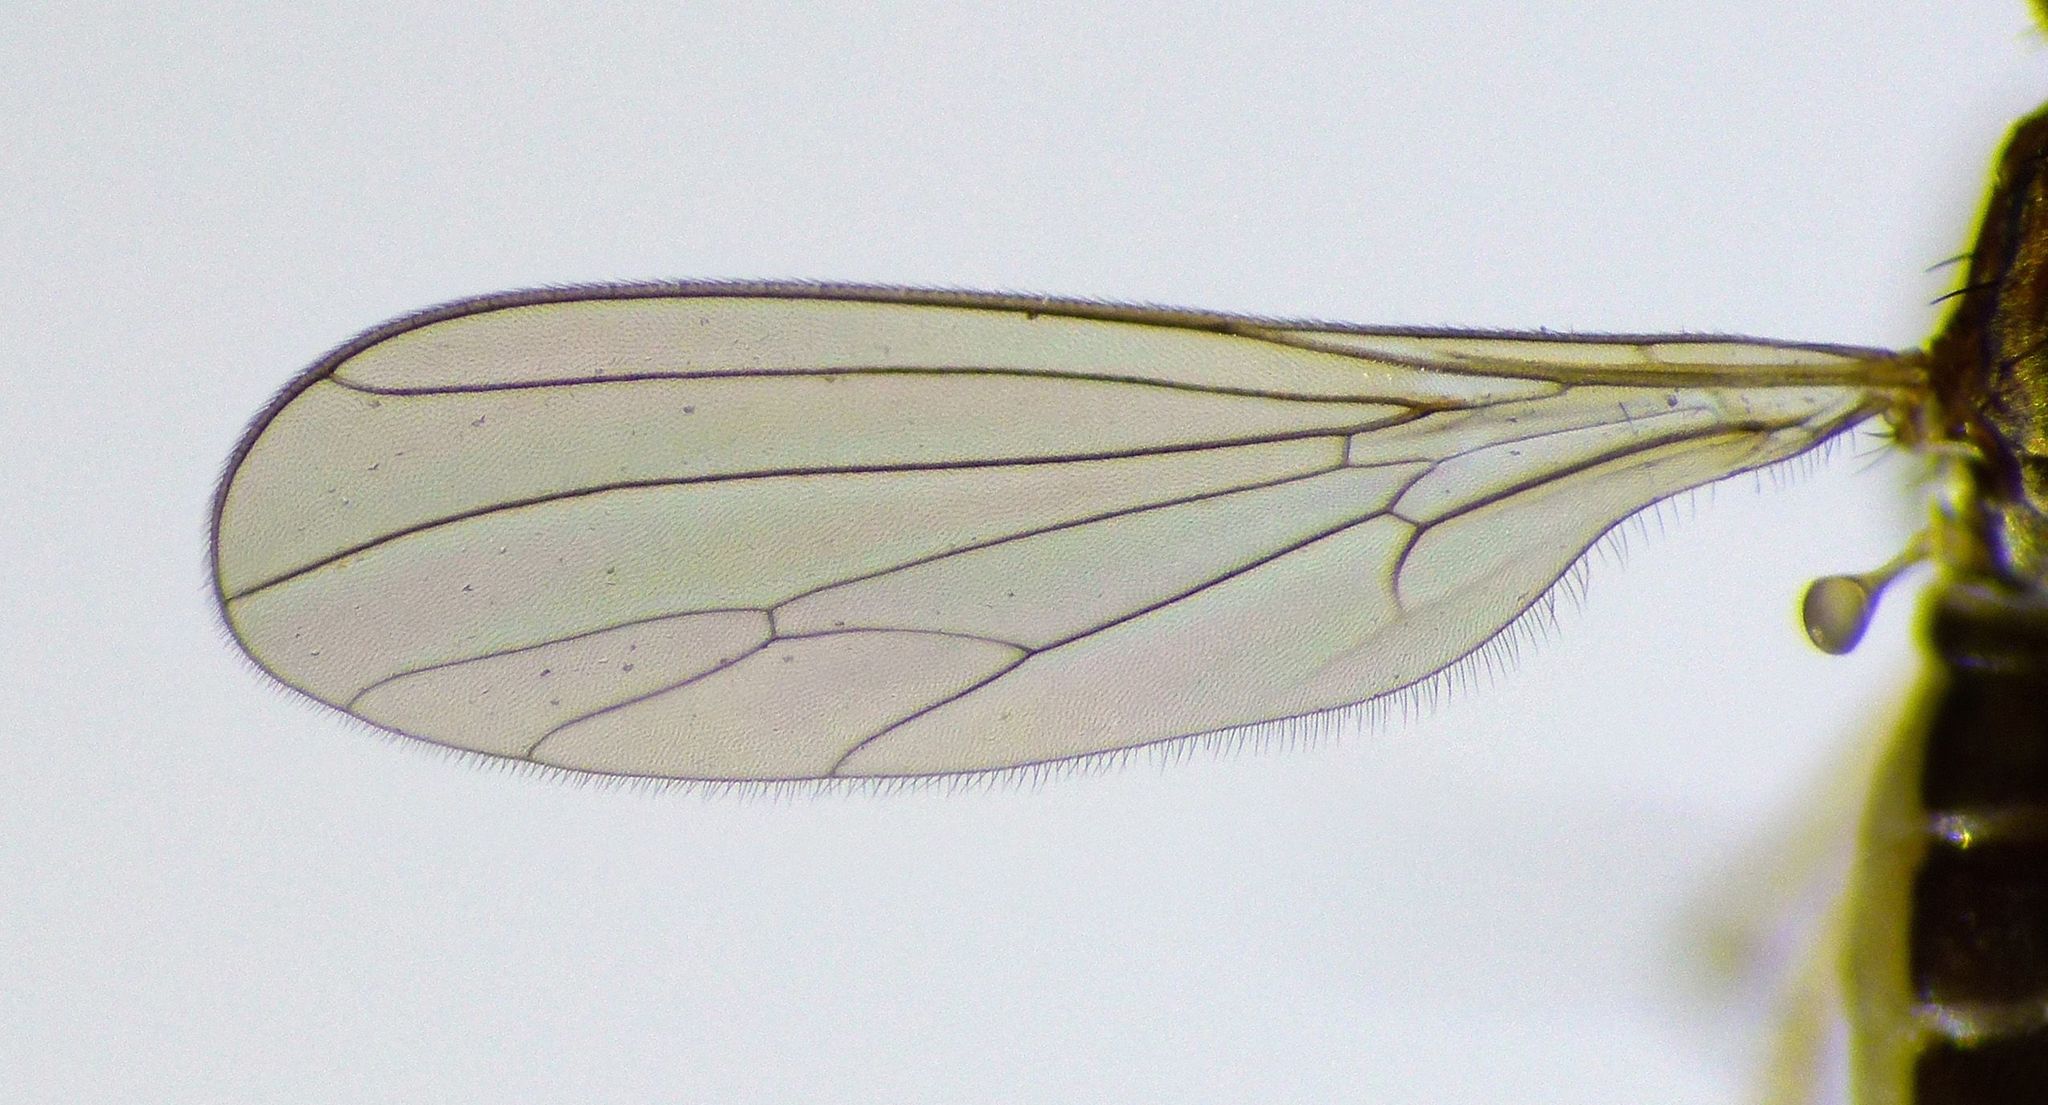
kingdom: Animalia
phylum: Arthropoda
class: Insecta
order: Diptera
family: Empididae
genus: Chelipoda
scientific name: Chelipoda secreta
